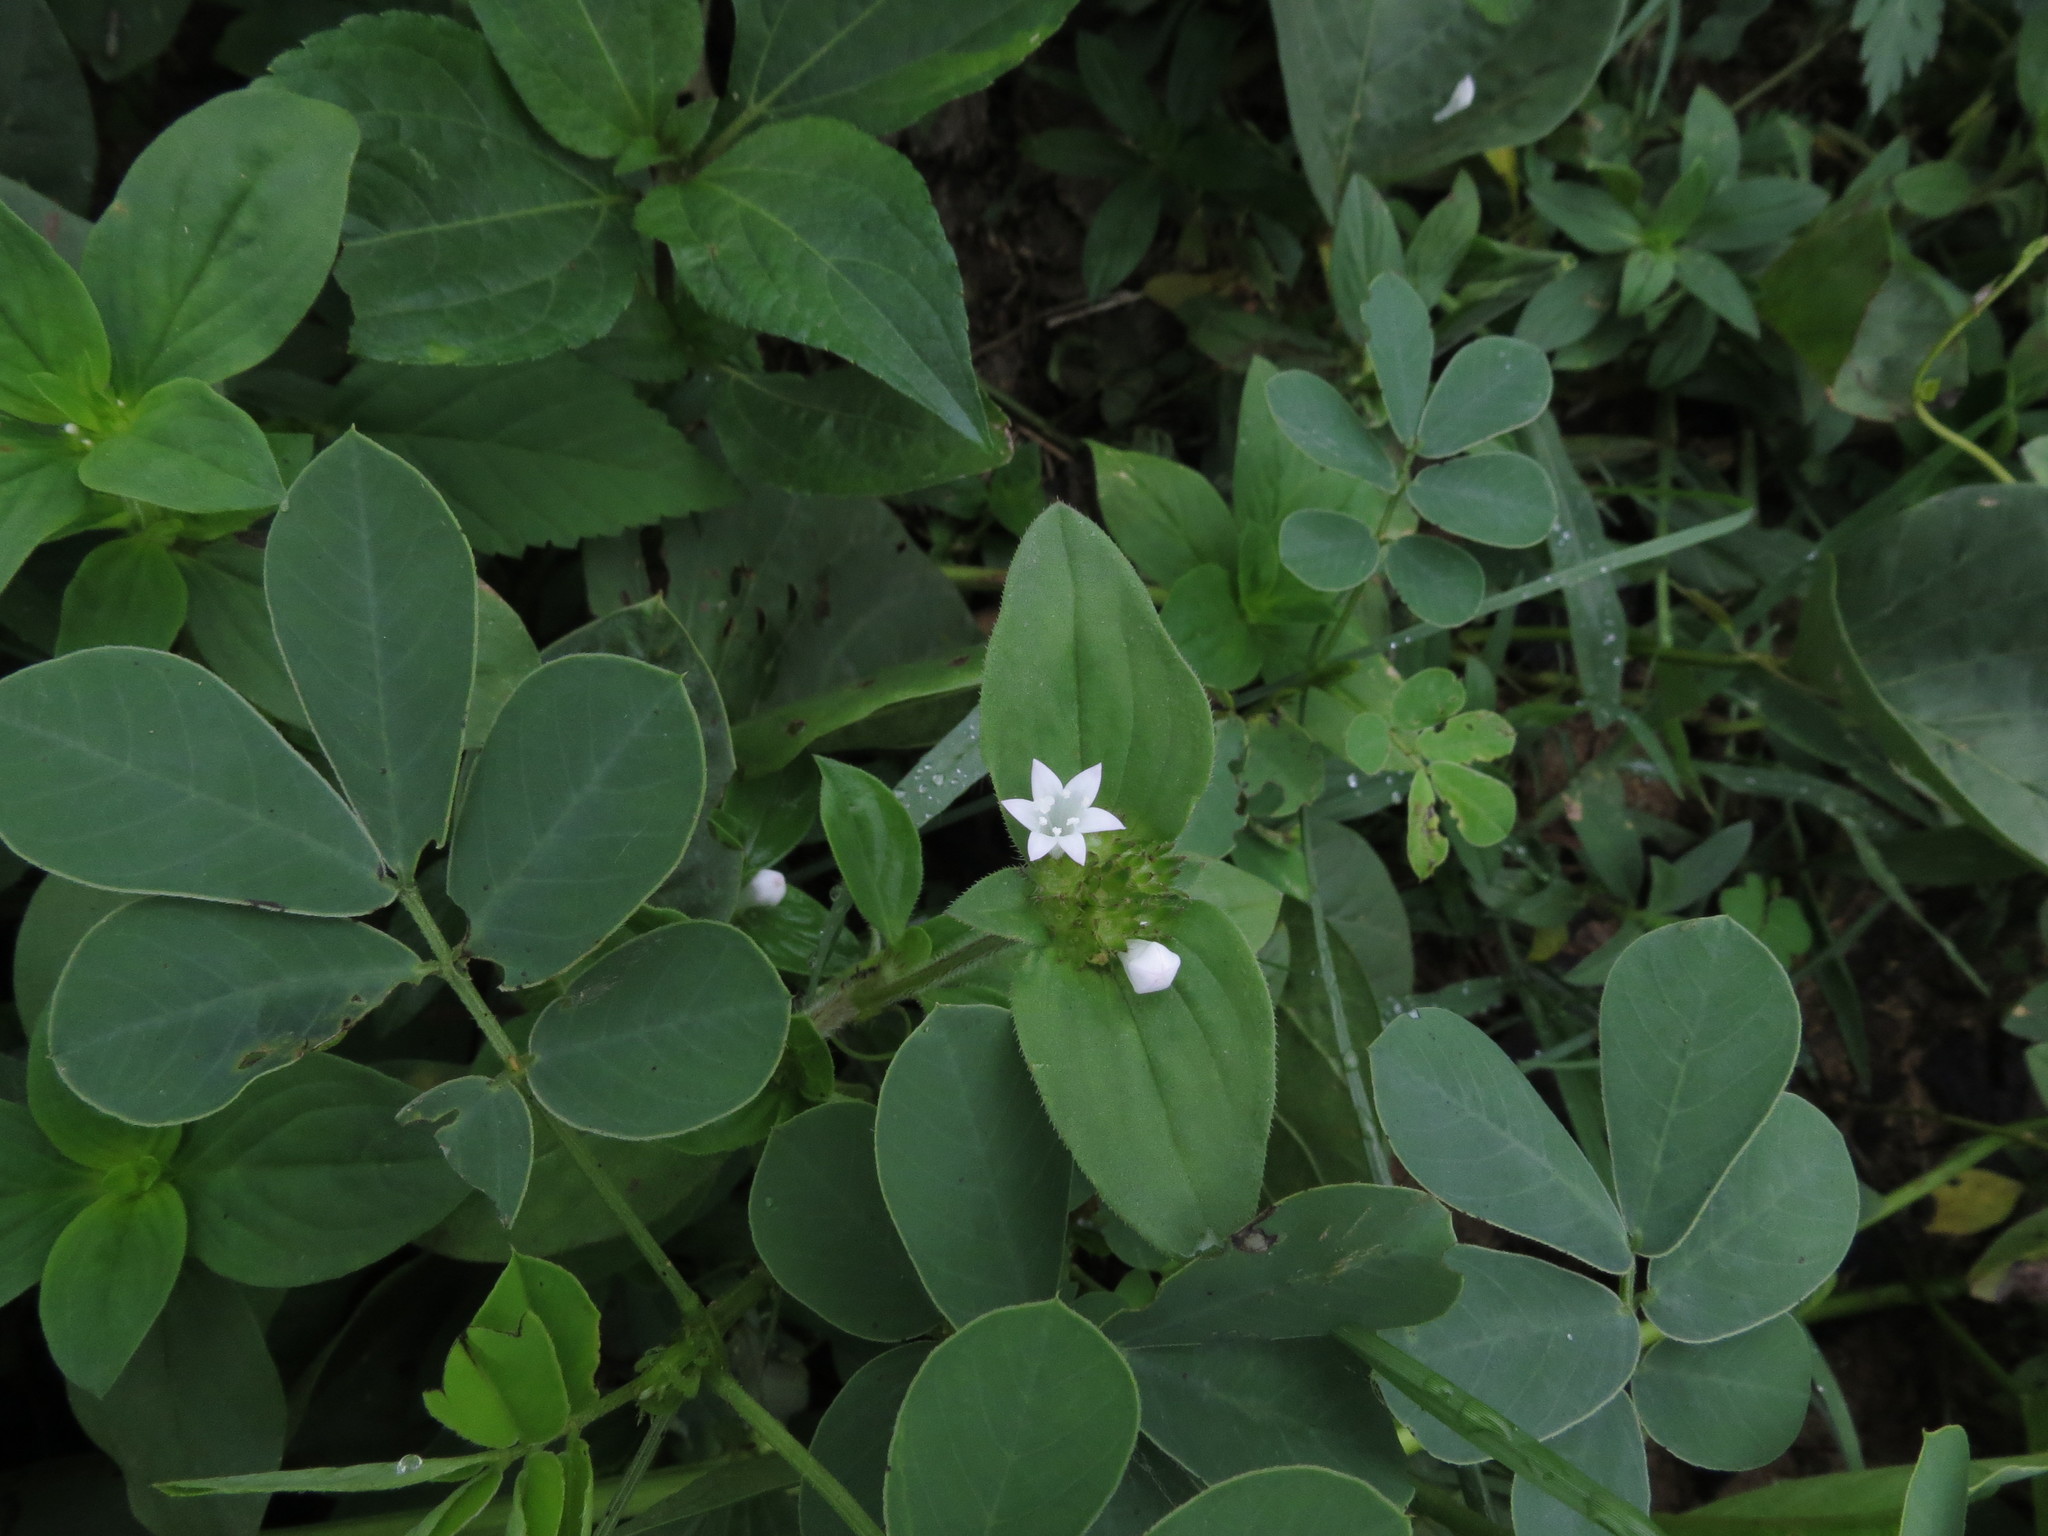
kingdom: Plantae
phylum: Tracheophyta
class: Magnoliopsida
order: Gentianales
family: Rubiaceae
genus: Richardia
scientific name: Richardia scabra
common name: Rough mexican clover
